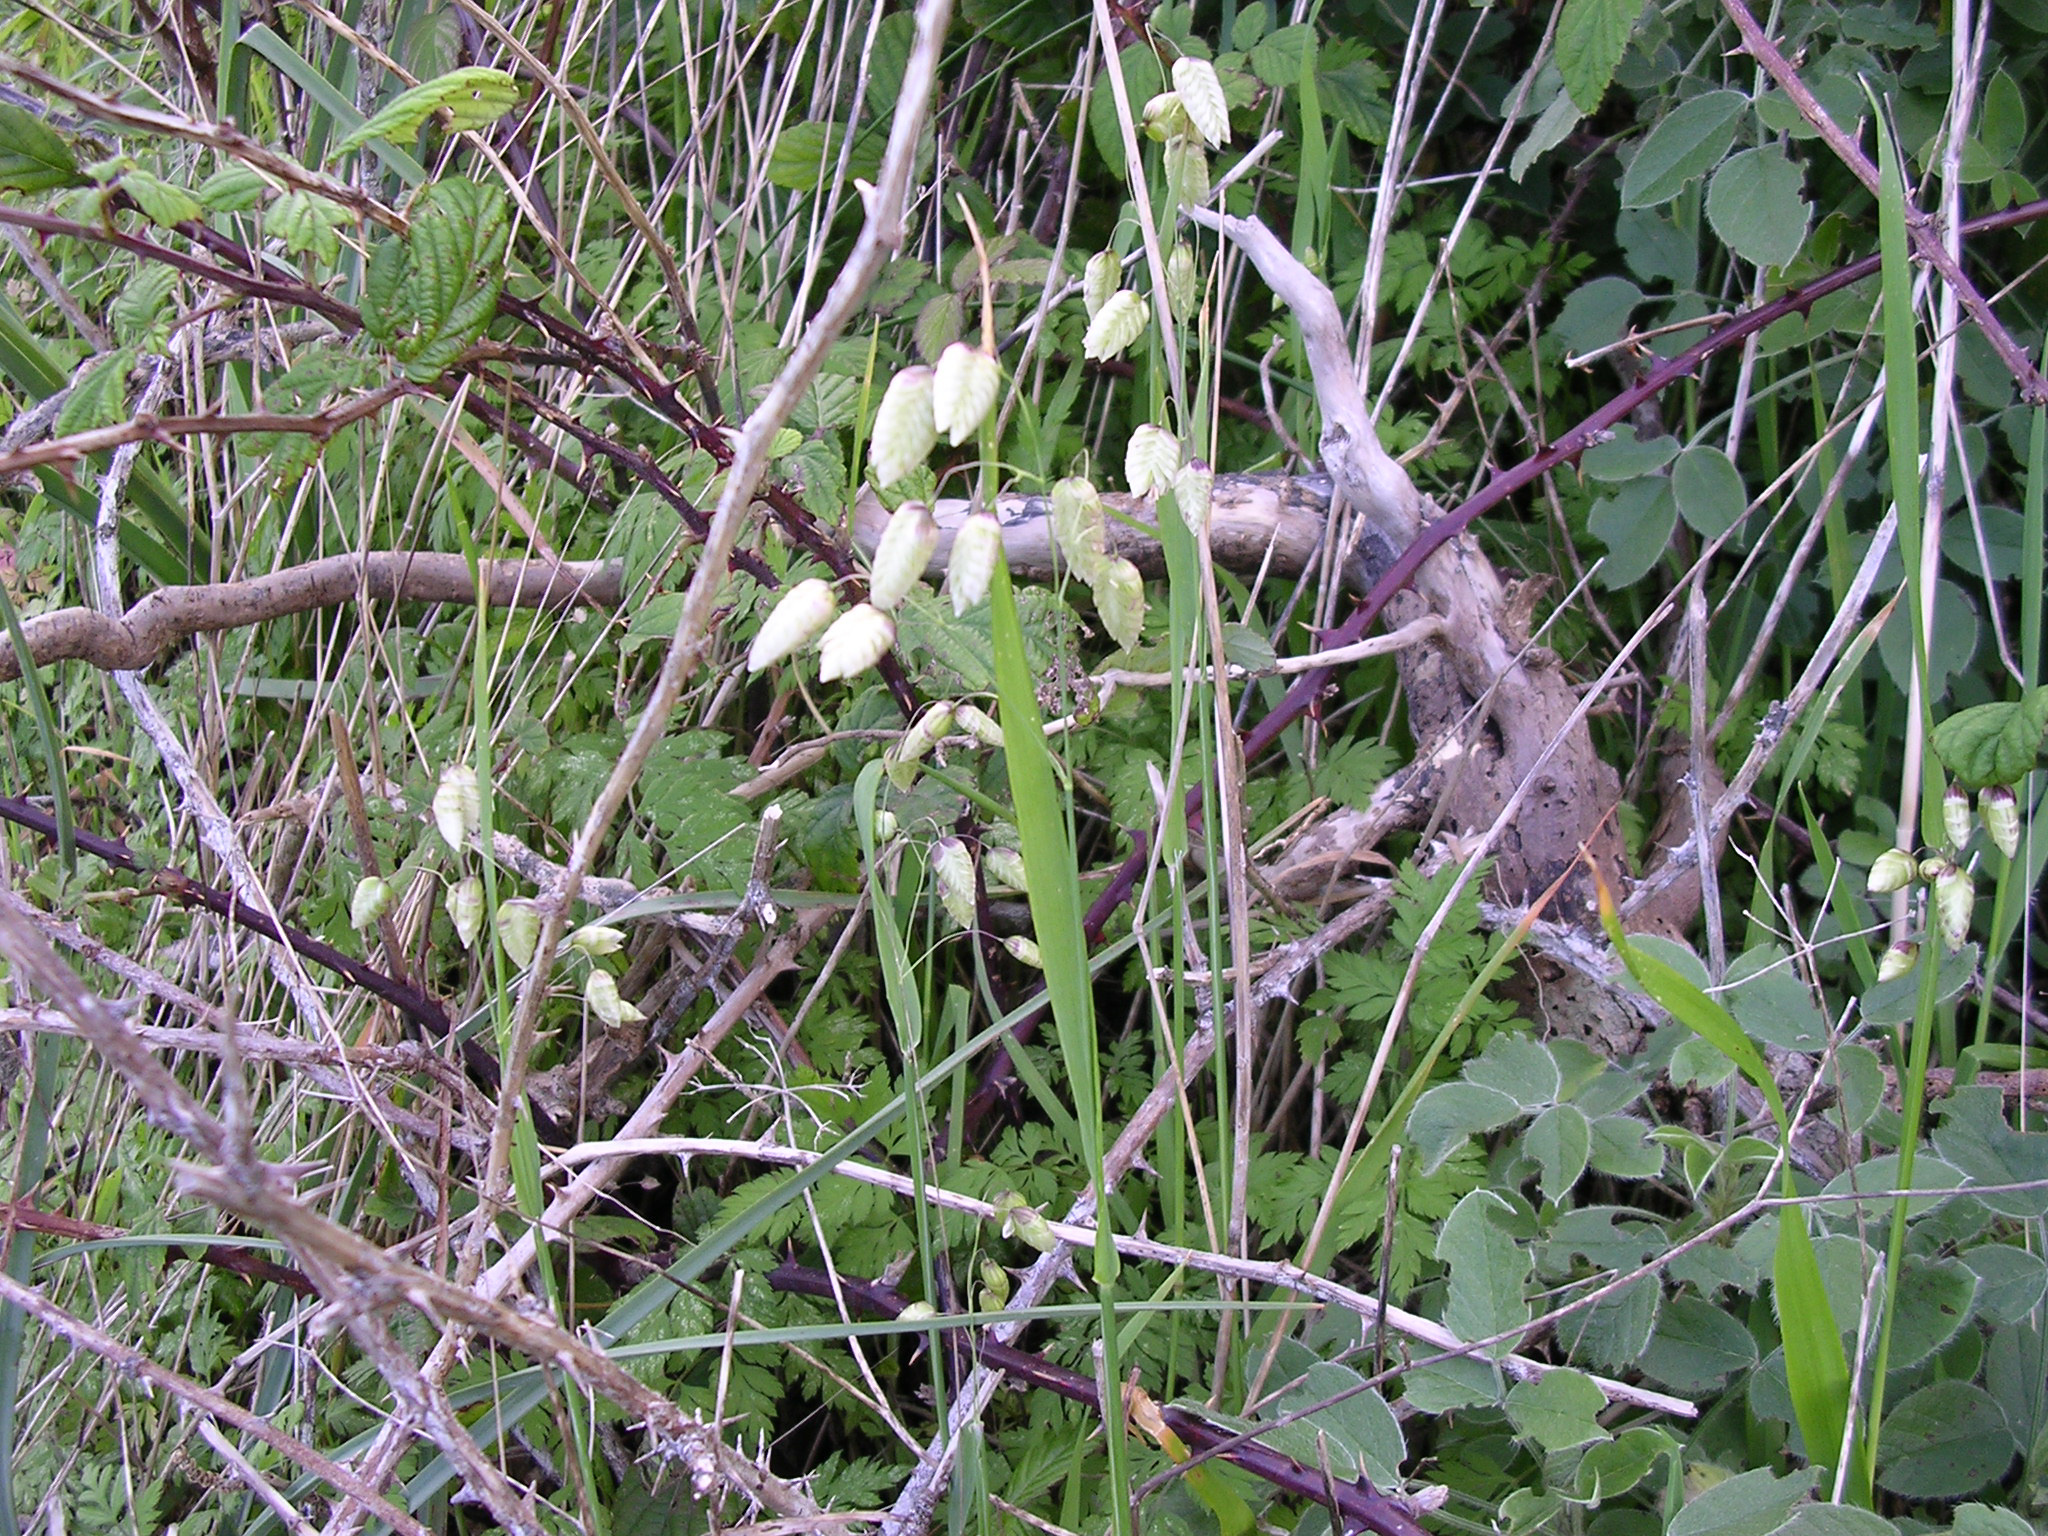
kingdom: Plantae
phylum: Tracheophyta
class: Liliopsida
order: Poales
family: Poaceae
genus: Briza
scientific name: Briza maxima
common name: Big quakinggrass
